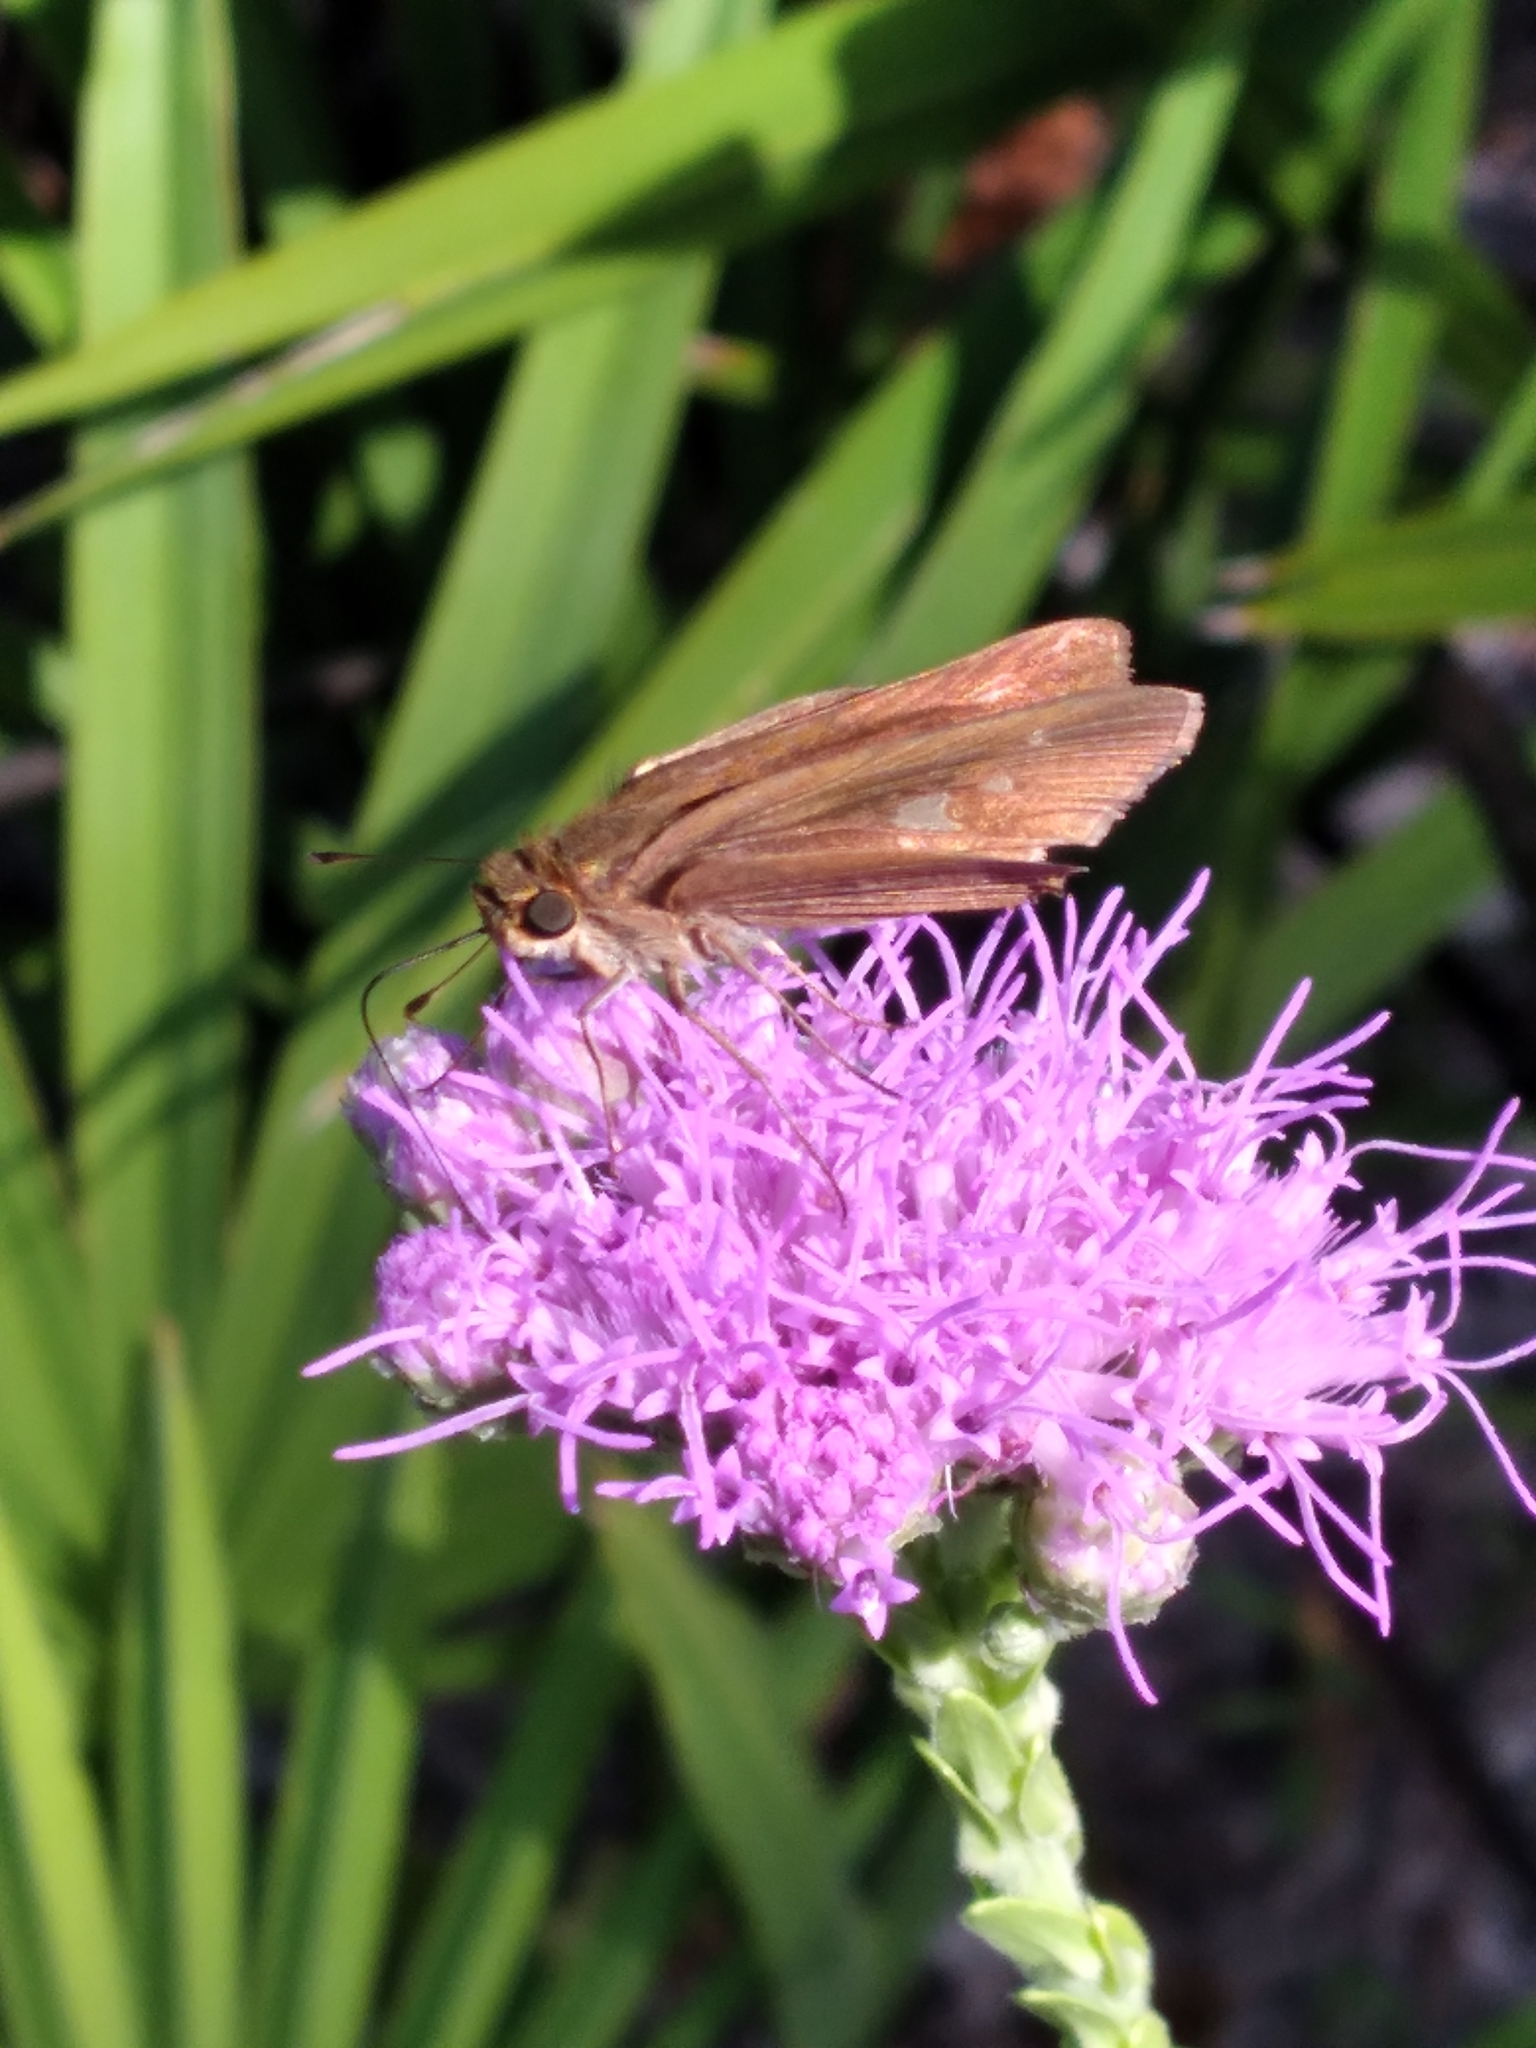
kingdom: Animalia
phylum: Arthropoda
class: Insecta
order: Lepidoptera
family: Hesperiidae
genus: Panoquina
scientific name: Panoquina ocola
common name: Ocola skipper
